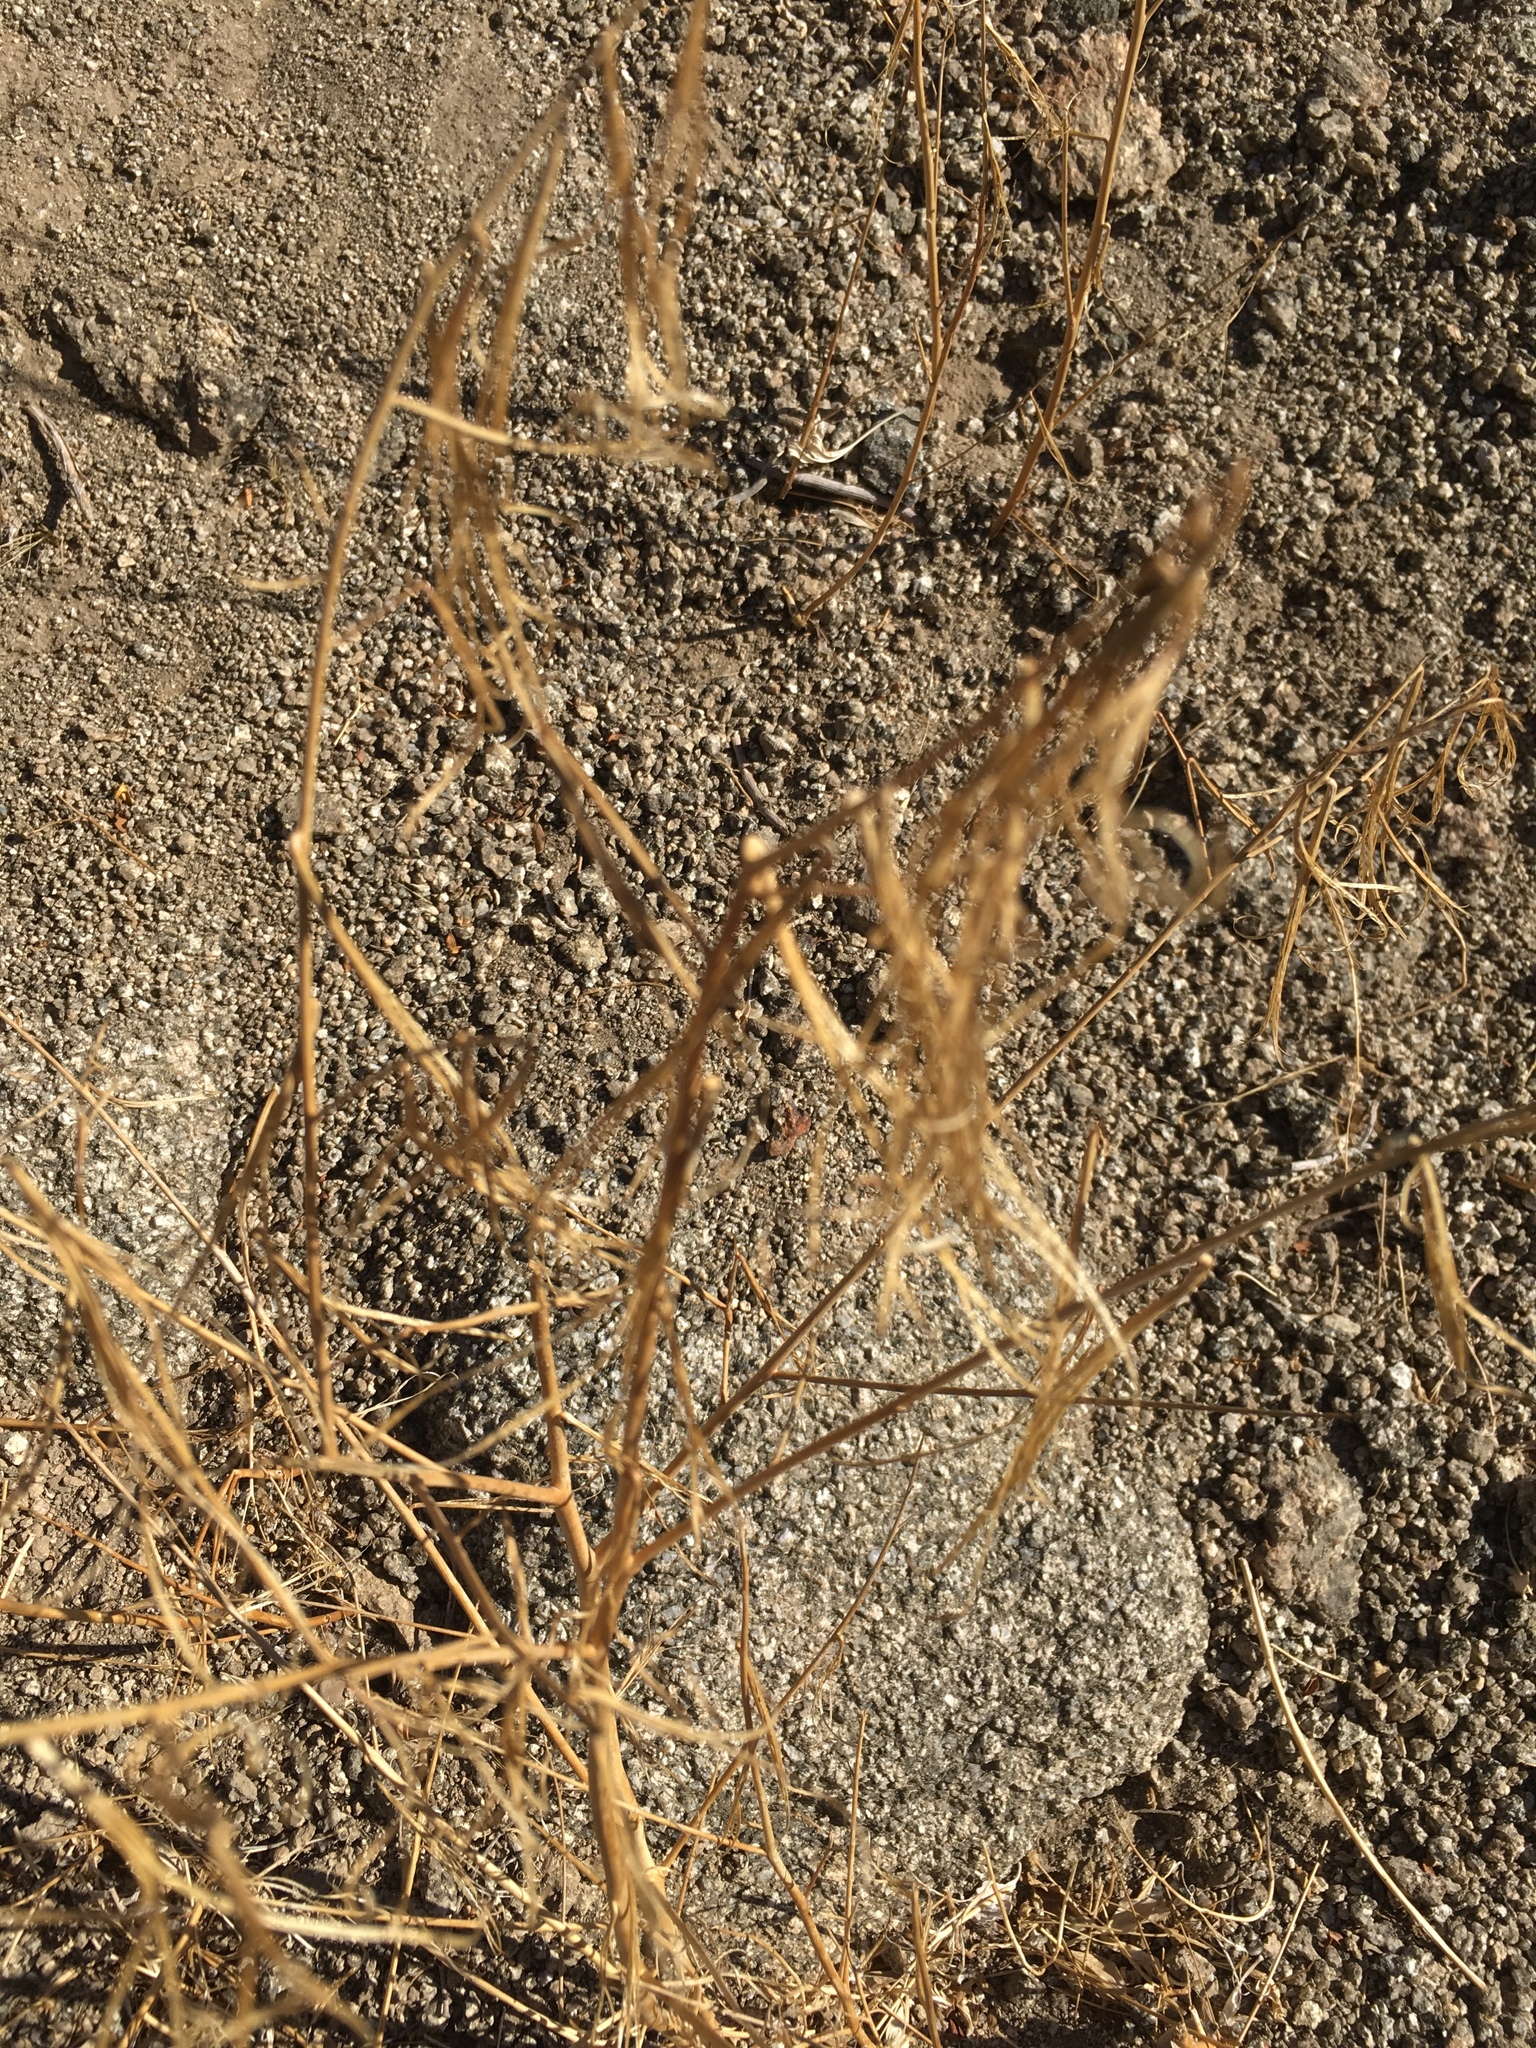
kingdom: Plantae
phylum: Tracheophyta
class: Magnoliopsida
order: Myrtales
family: Onagraceae
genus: Eulobus
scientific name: Eulobus californicus
